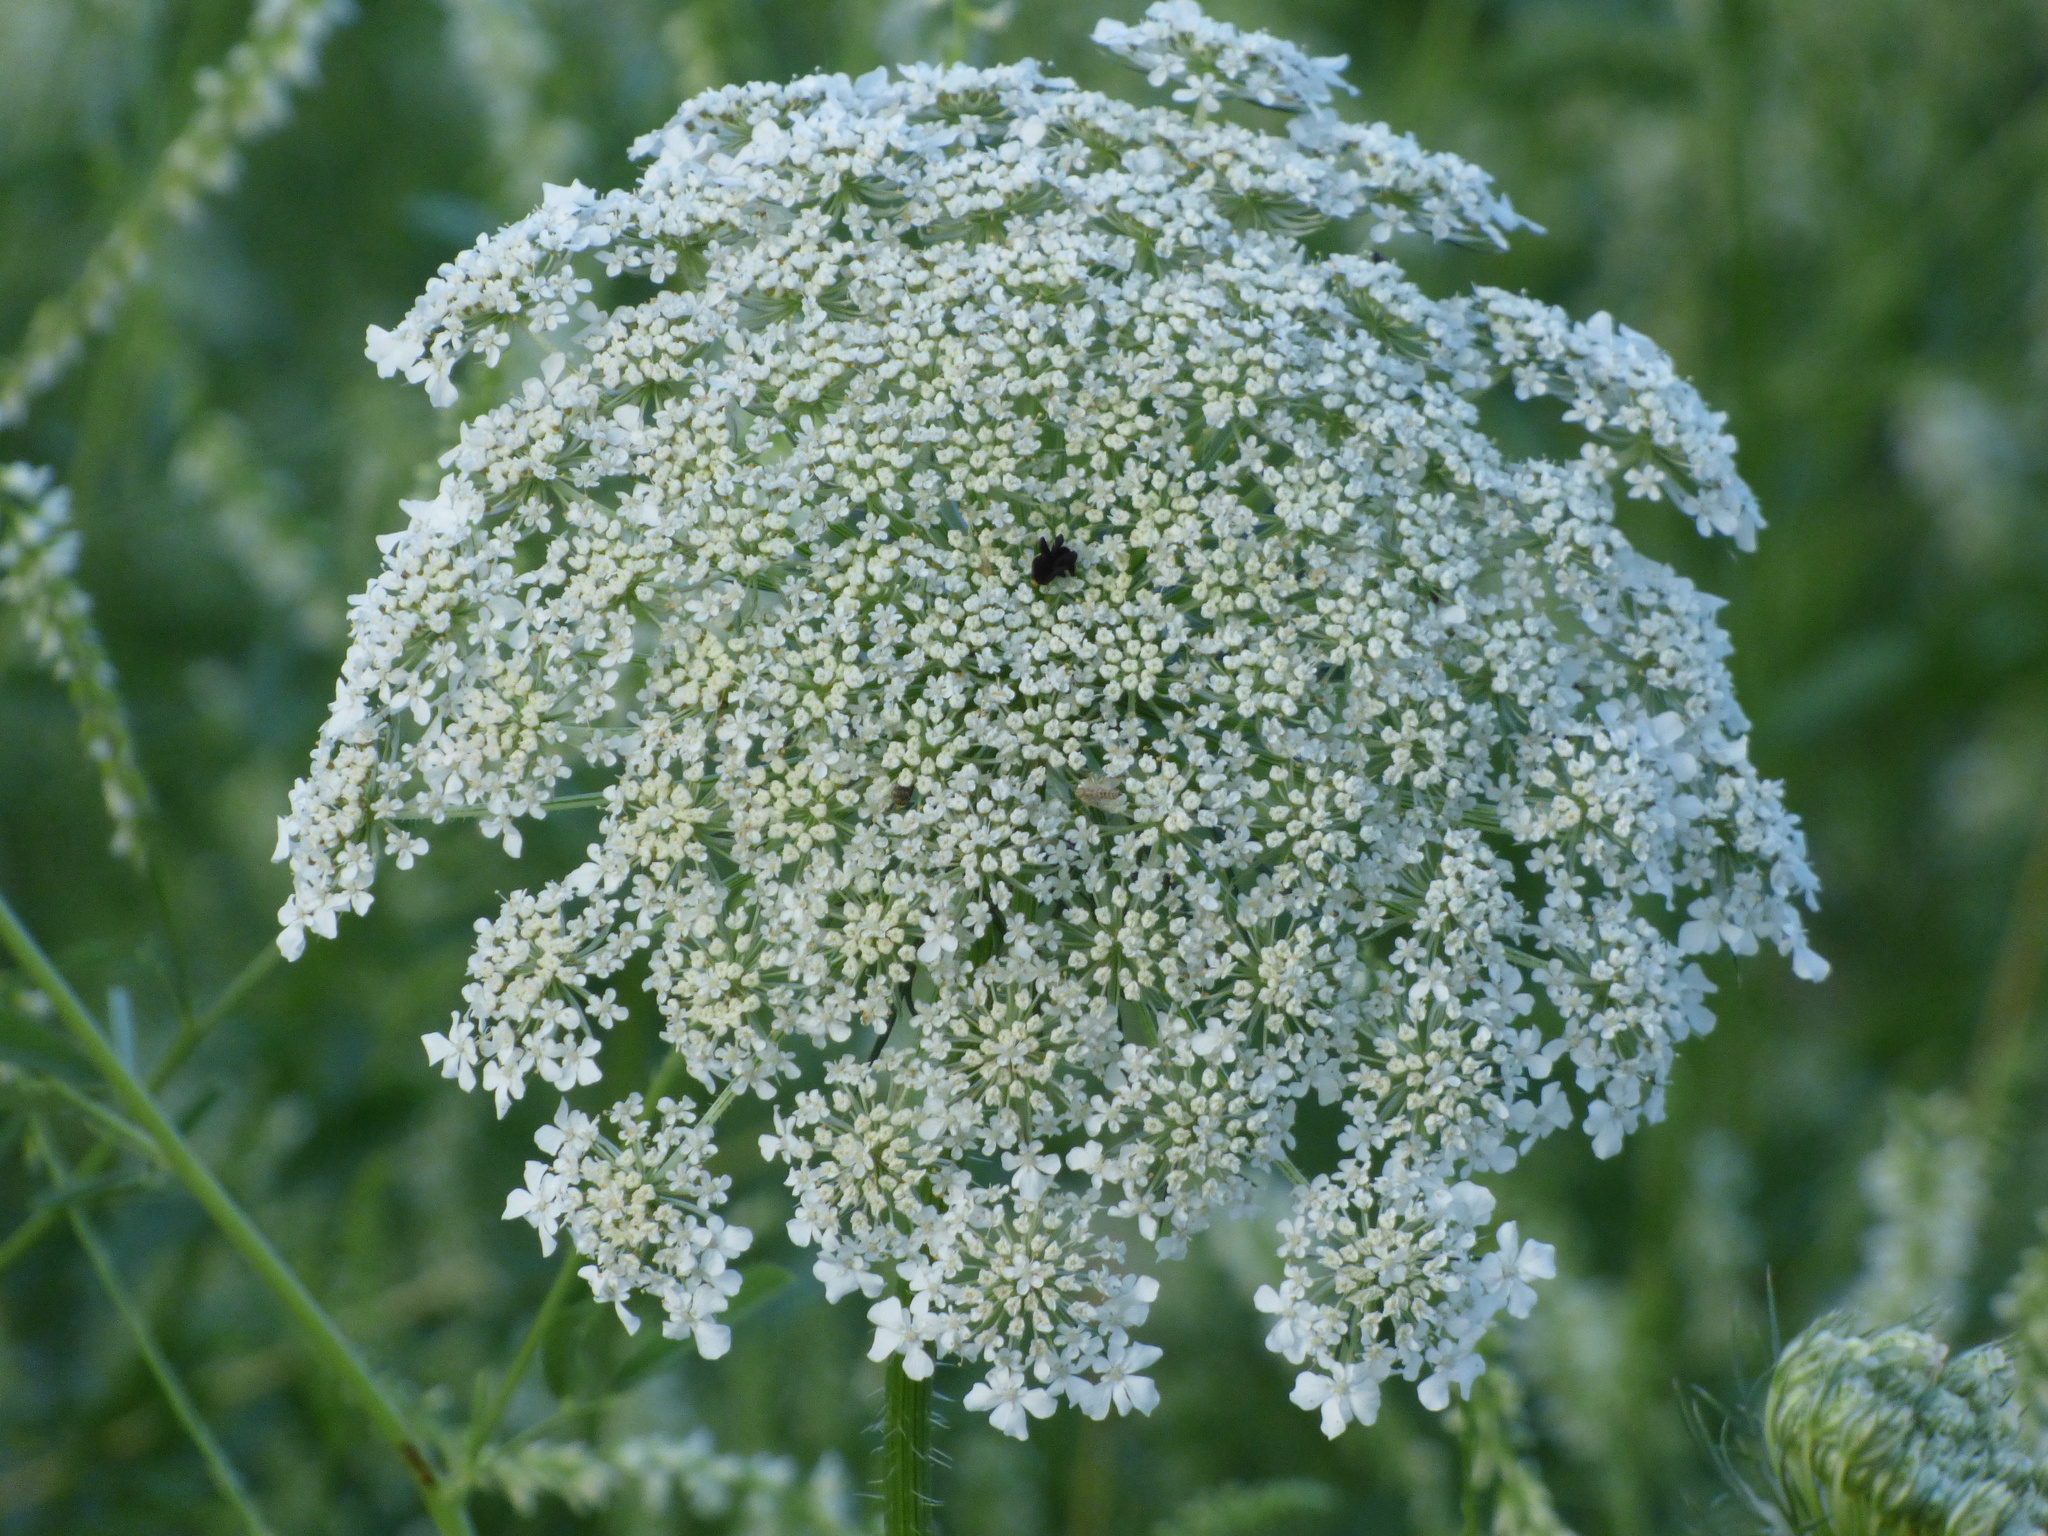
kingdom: Plantae
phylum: Tracheophyta
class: Magnoliopsida
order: Apiales
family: Apiaceae
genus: Daucus
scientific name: Daucus carota
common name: Wild carrot
